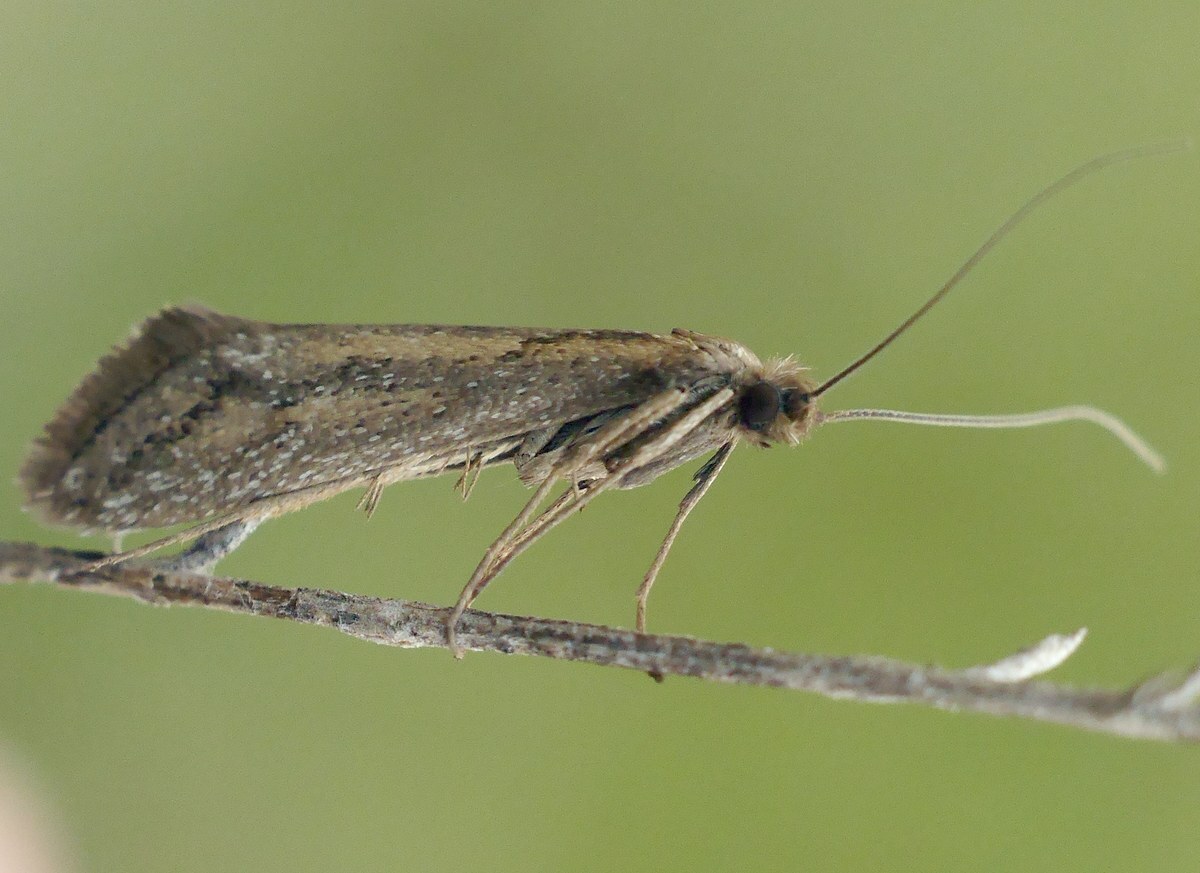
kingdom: Animalia
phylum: Arthropoda
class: Insecta
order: Lepidoptera
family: Eriocottidae
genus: Deuterotinea
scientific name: Deuterotinea casanella
